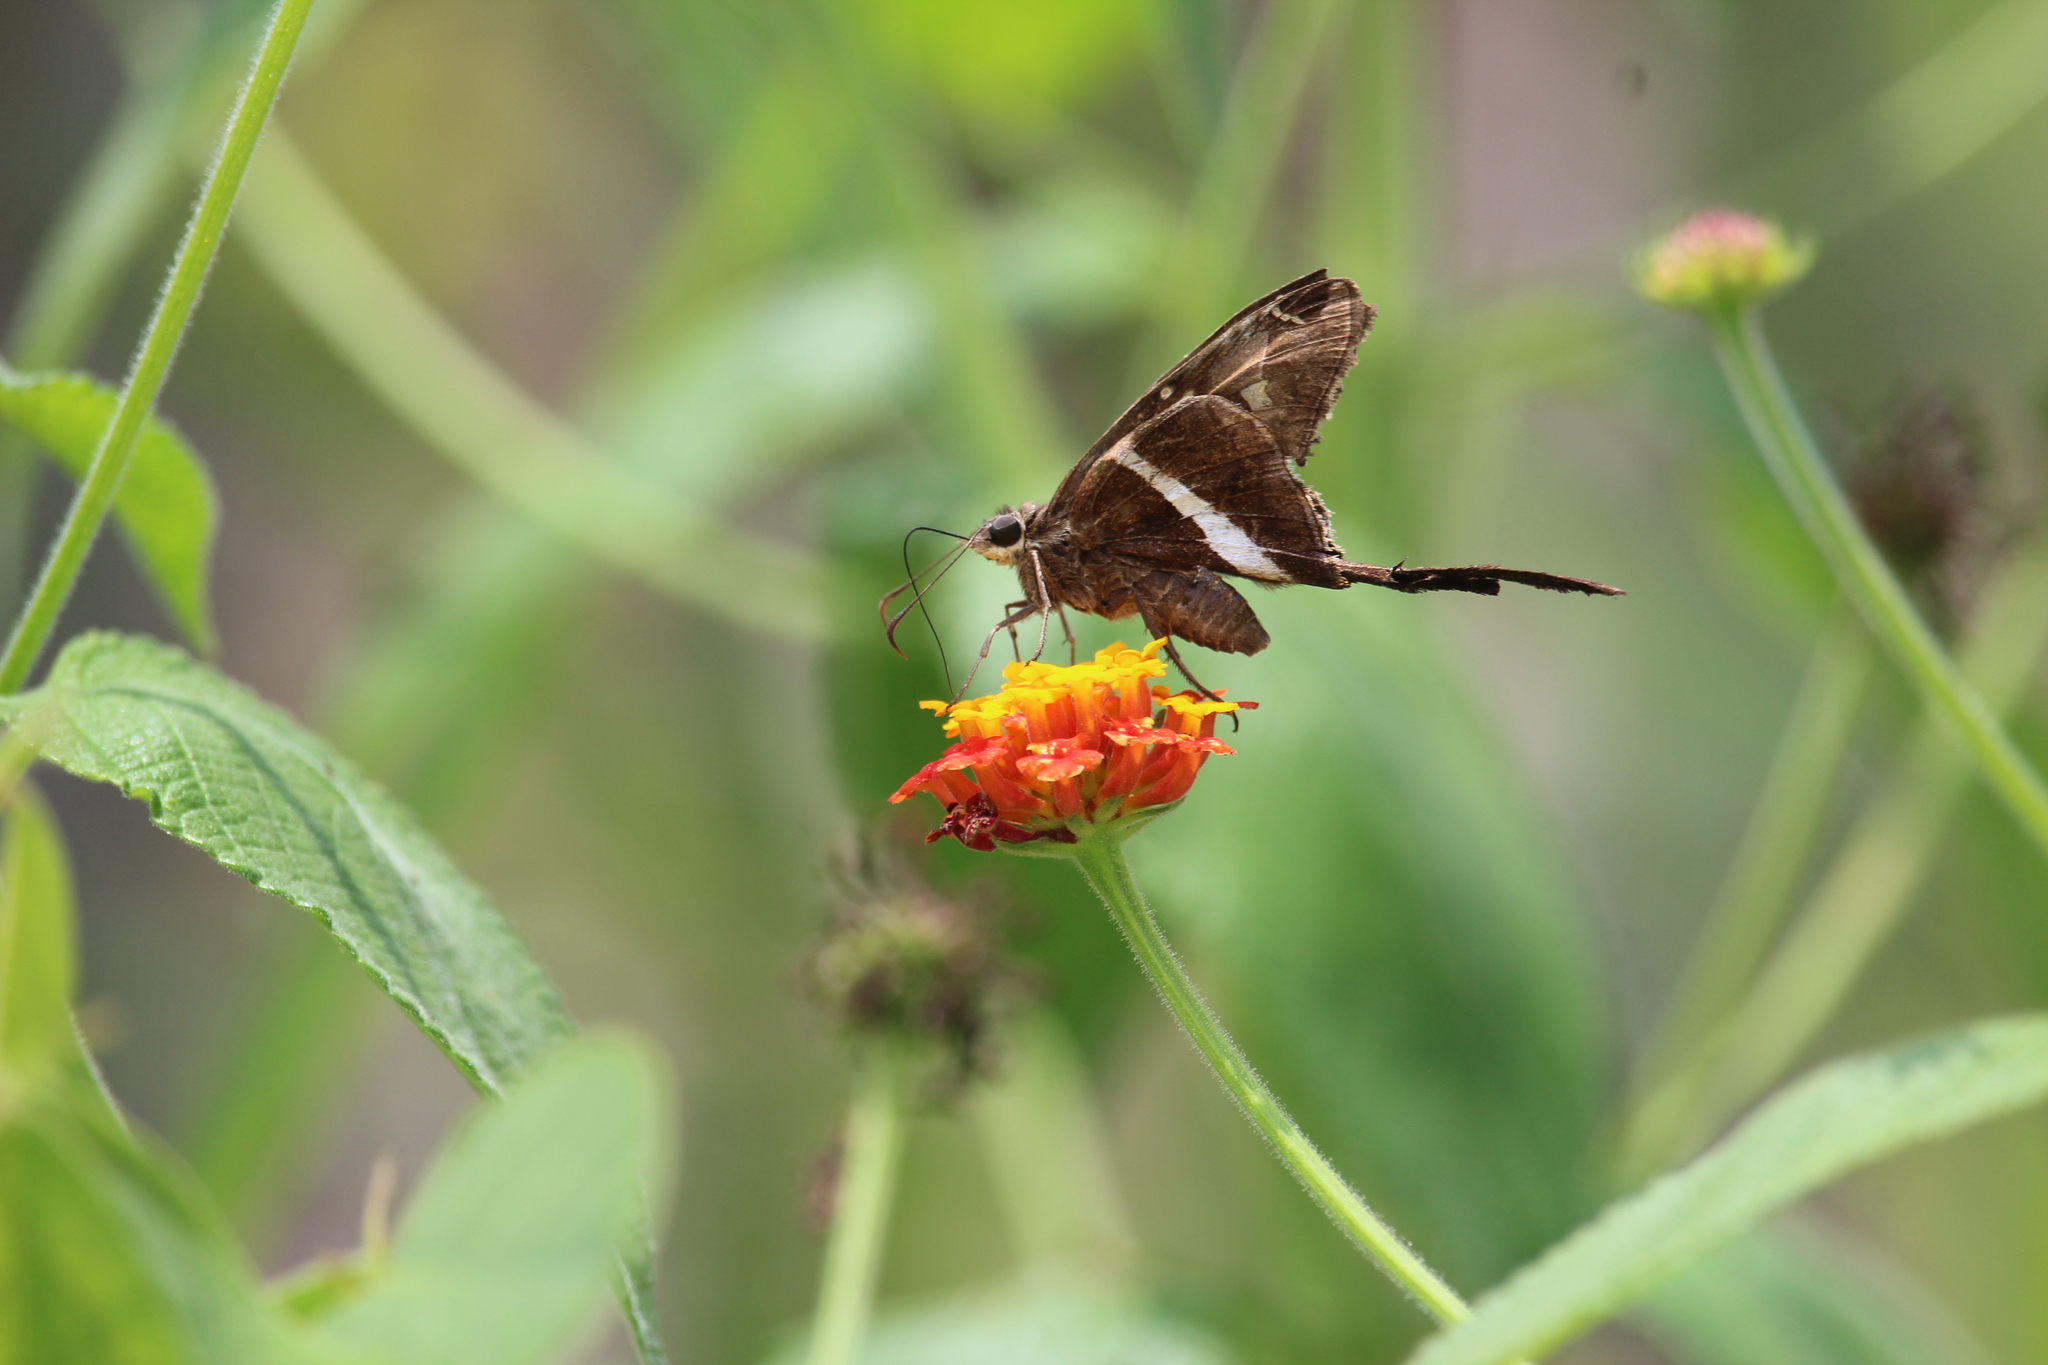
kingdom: Animalia
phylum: Arthropoda
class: Insecta
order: Lepidoptera
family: Hesperiidae
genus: Chioides
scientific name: Chioides catillus
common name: Silverbanded skipper
